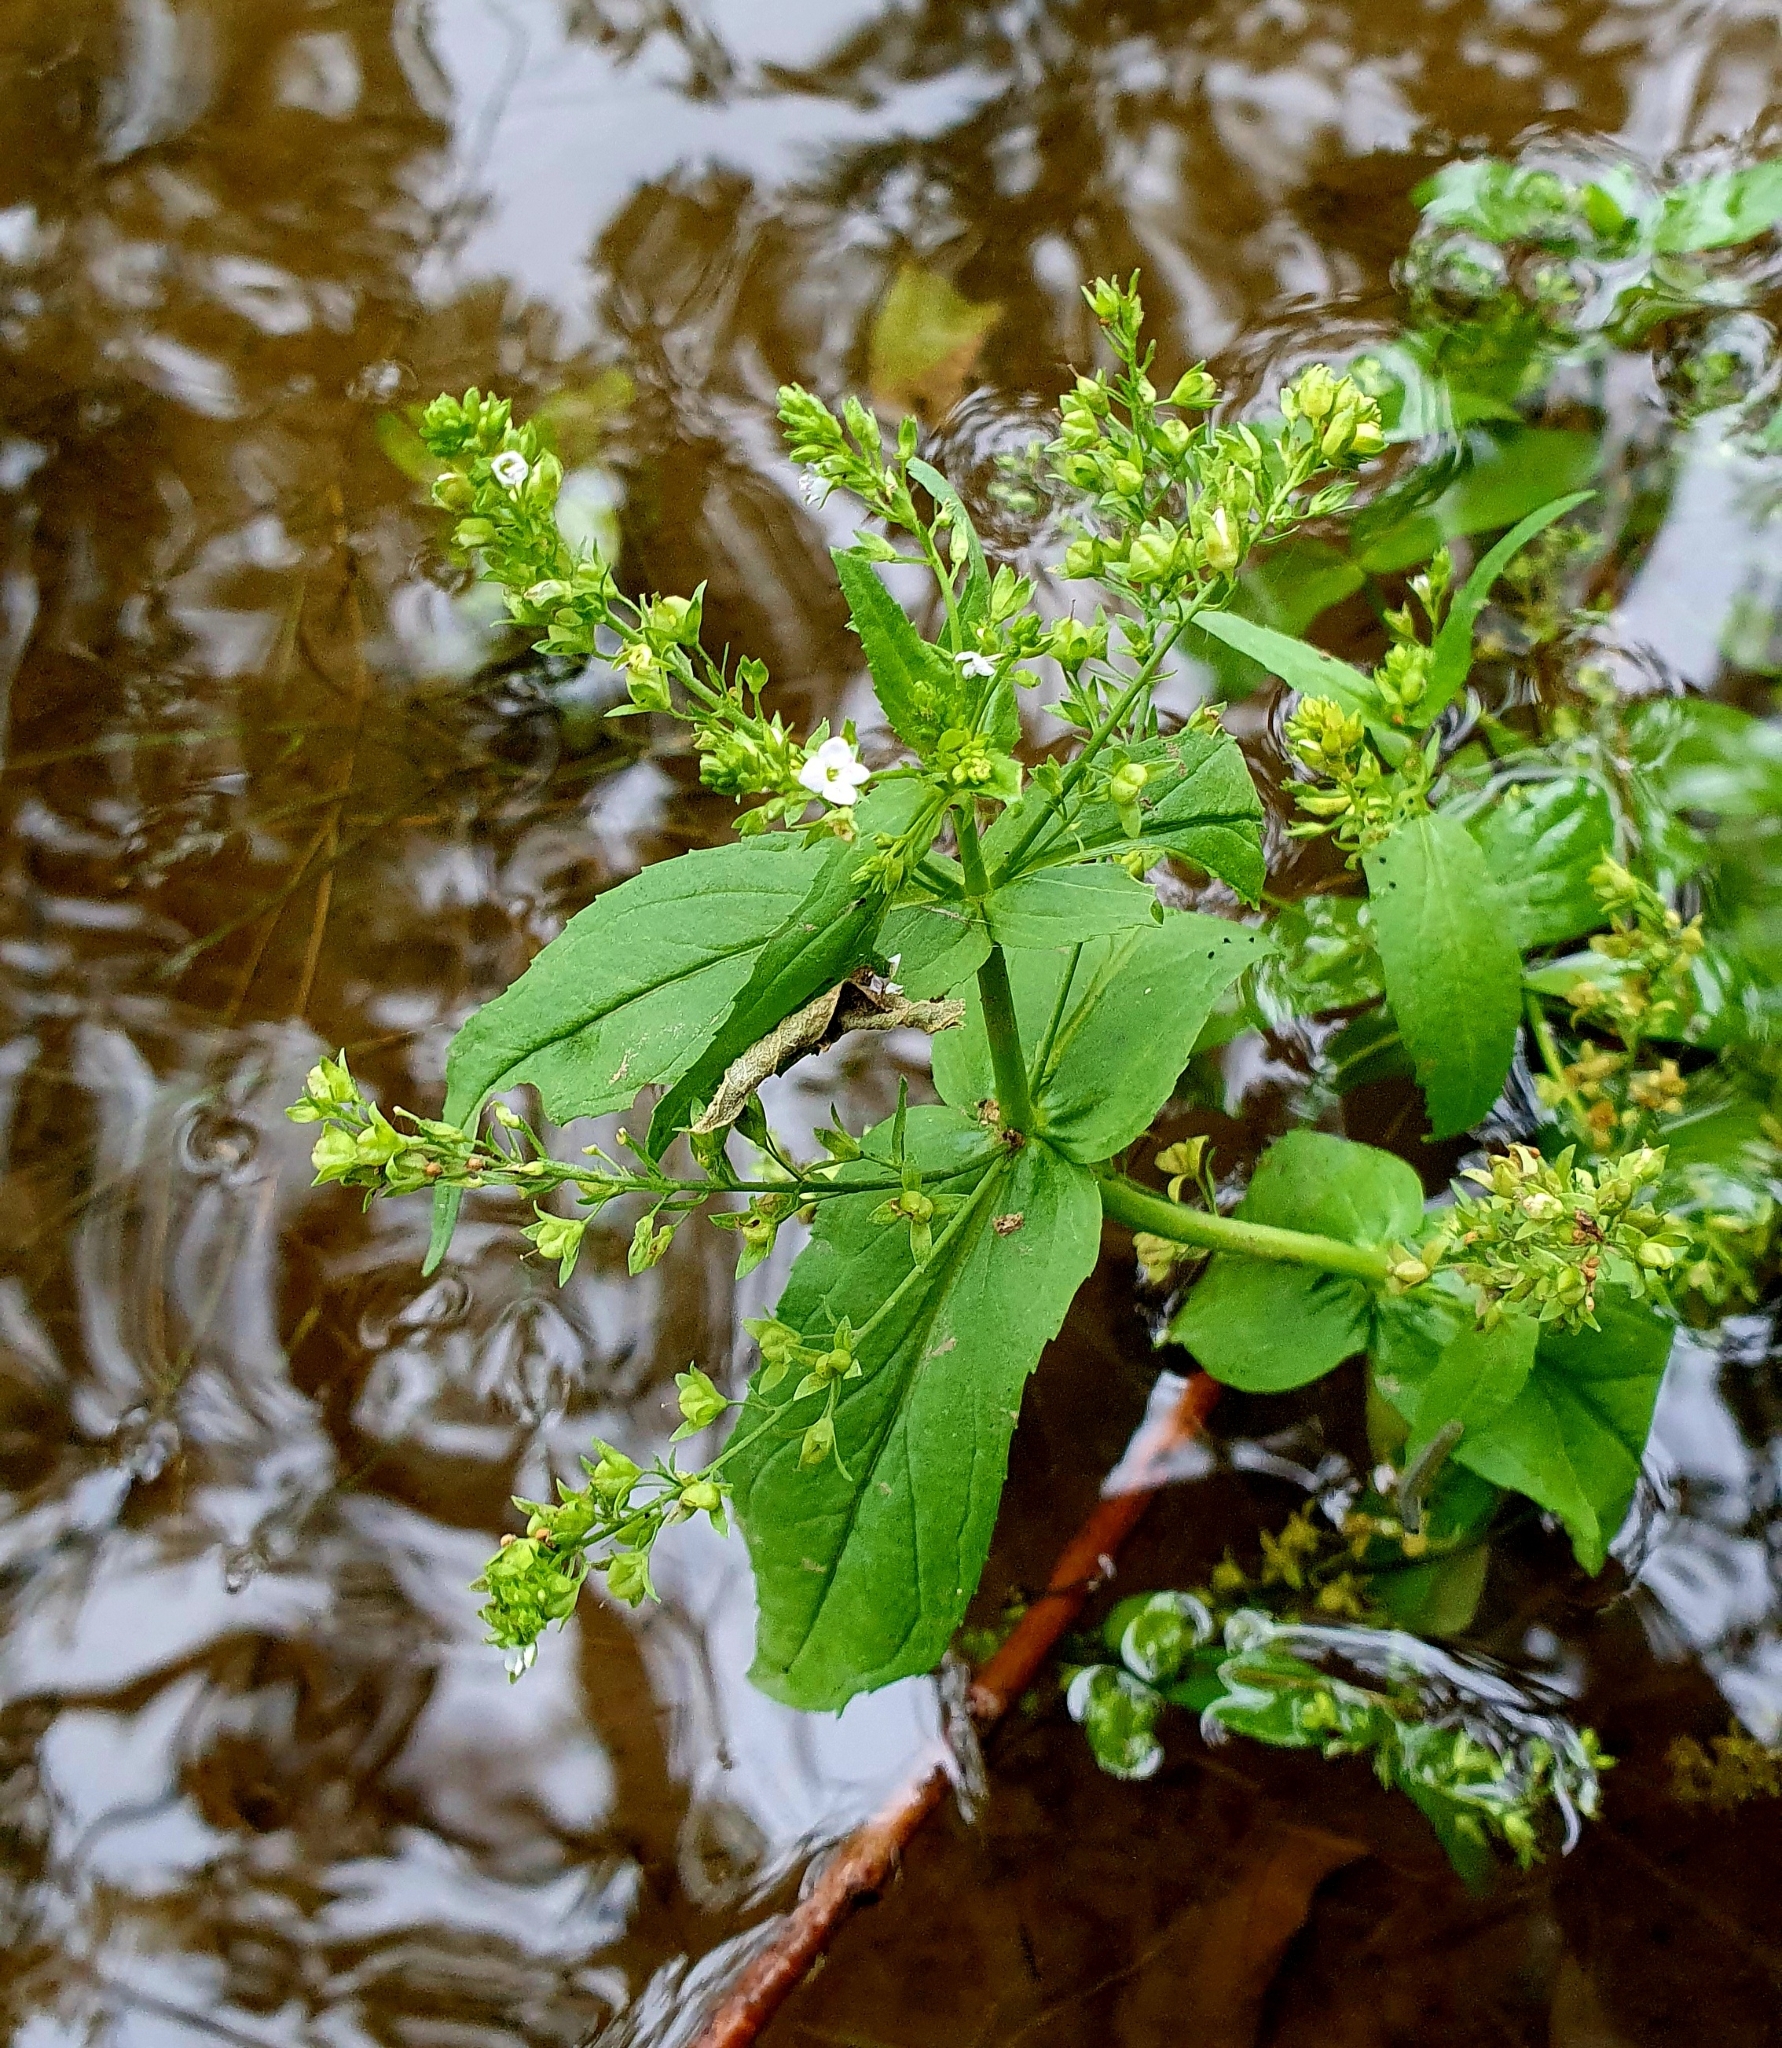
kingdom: Plantae
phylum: Tracheophyta
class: Magnoliopsida
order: Lamiales
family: Plantaginaceae
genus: Veronica
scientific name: Veronica anagallis-aquatica
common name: Water speedwell
